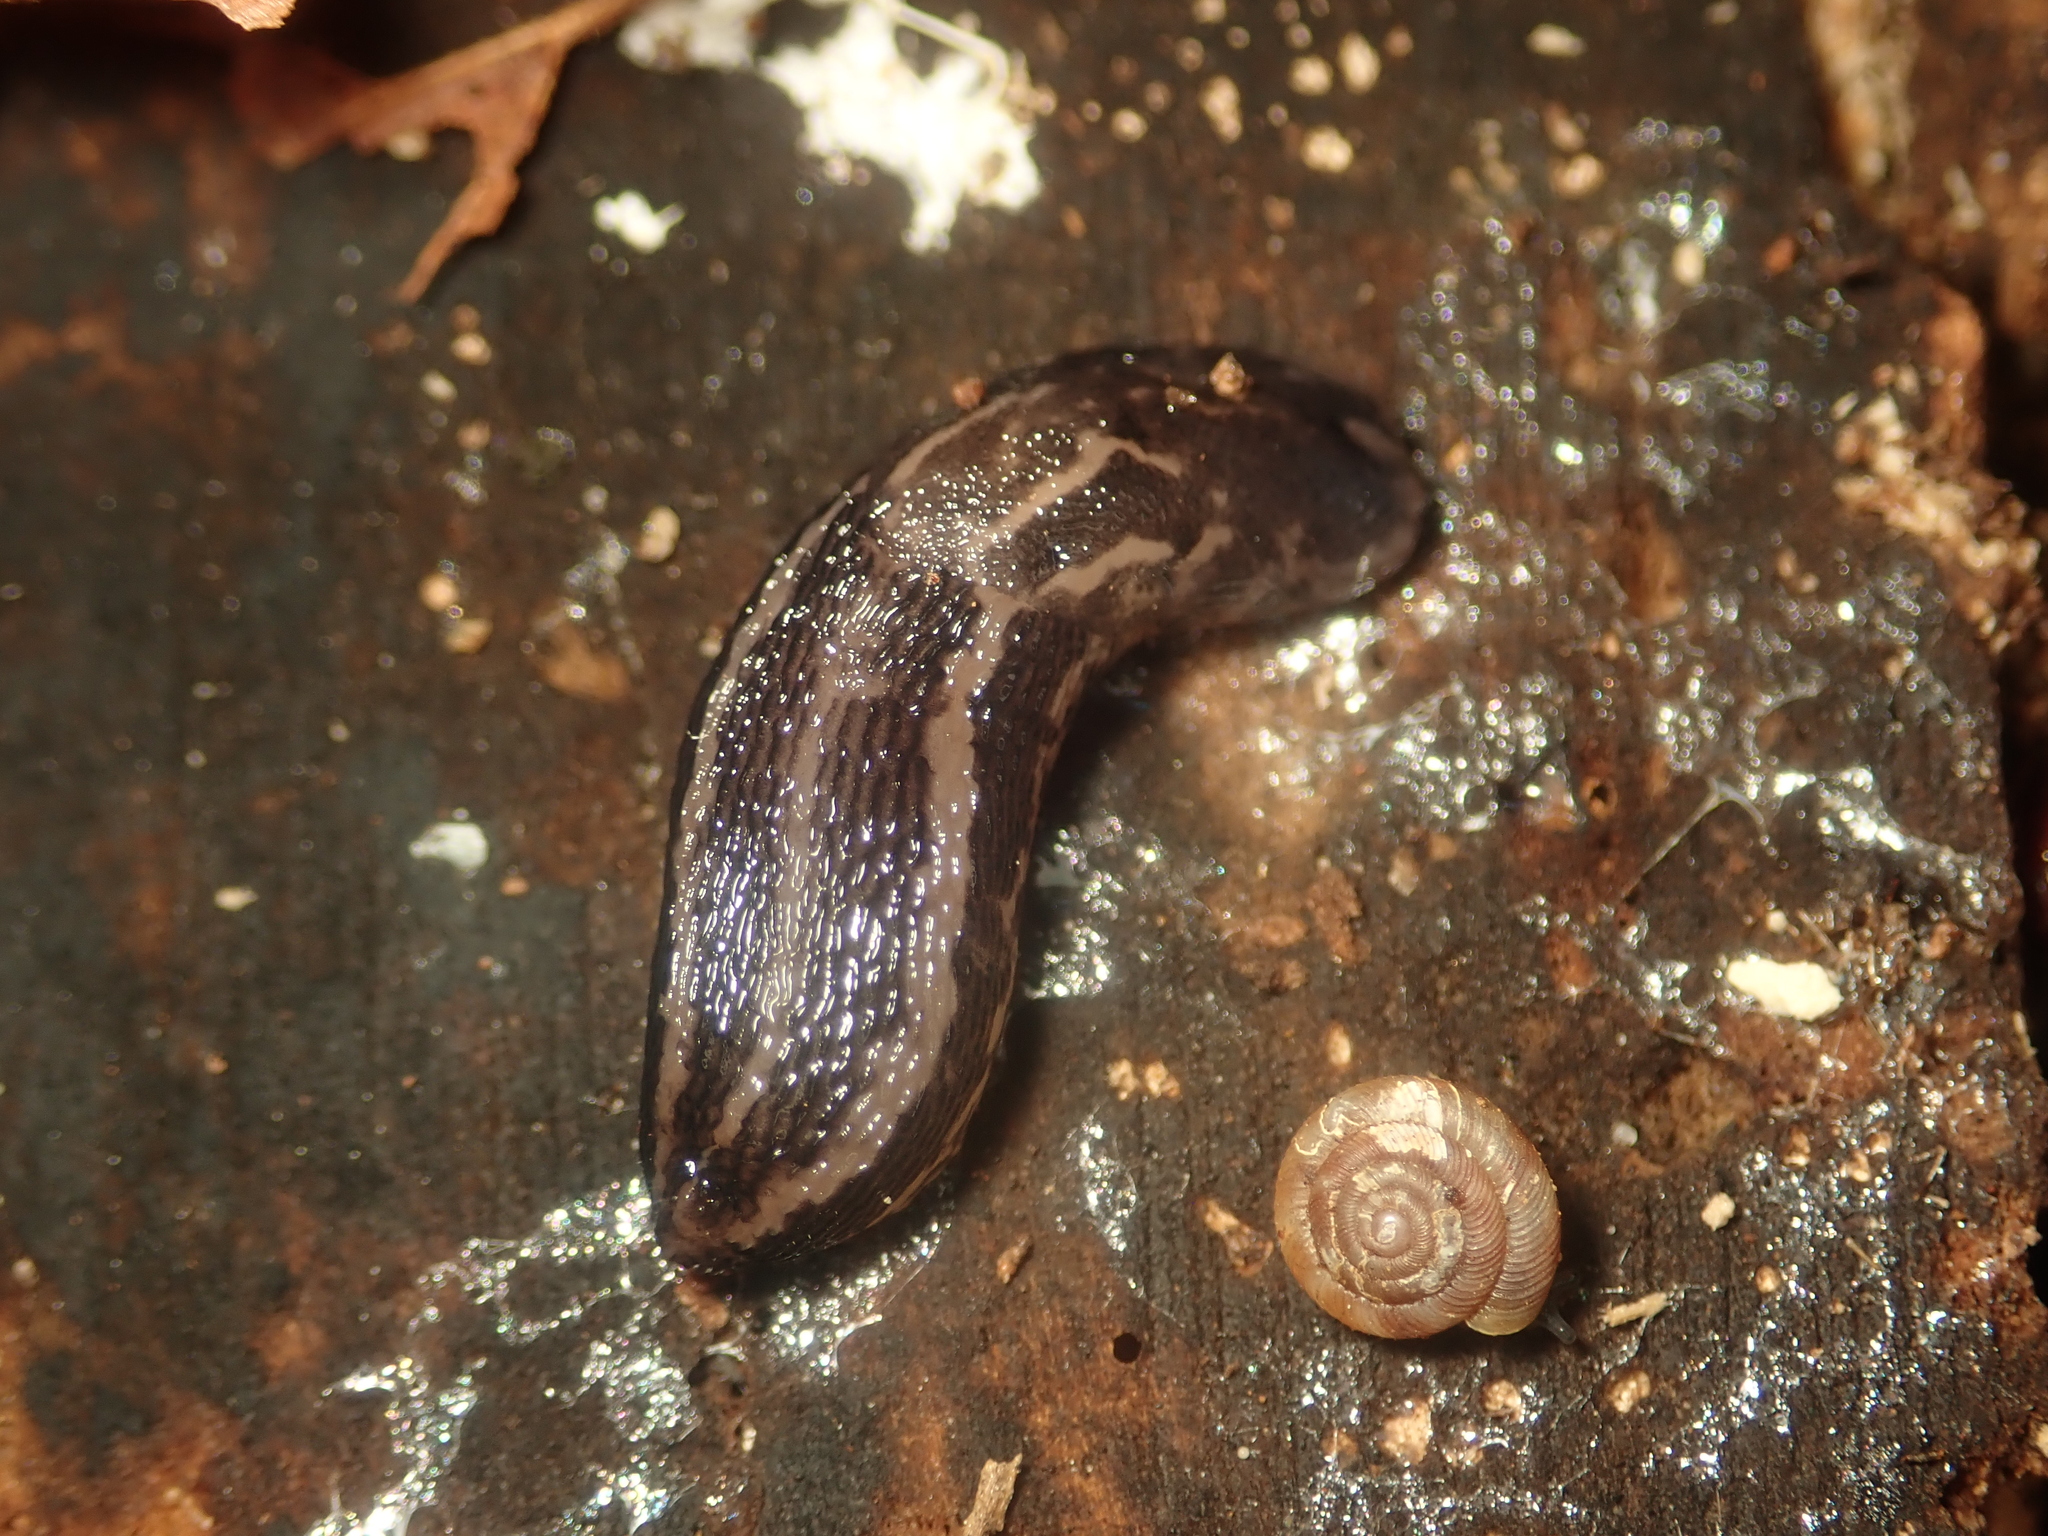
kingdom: Animalia
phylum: Mollusca
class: Gastropoda
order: Stylommatophora
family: Limacidae
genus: Limax
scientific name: Limax maximus
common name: Great grey slug
